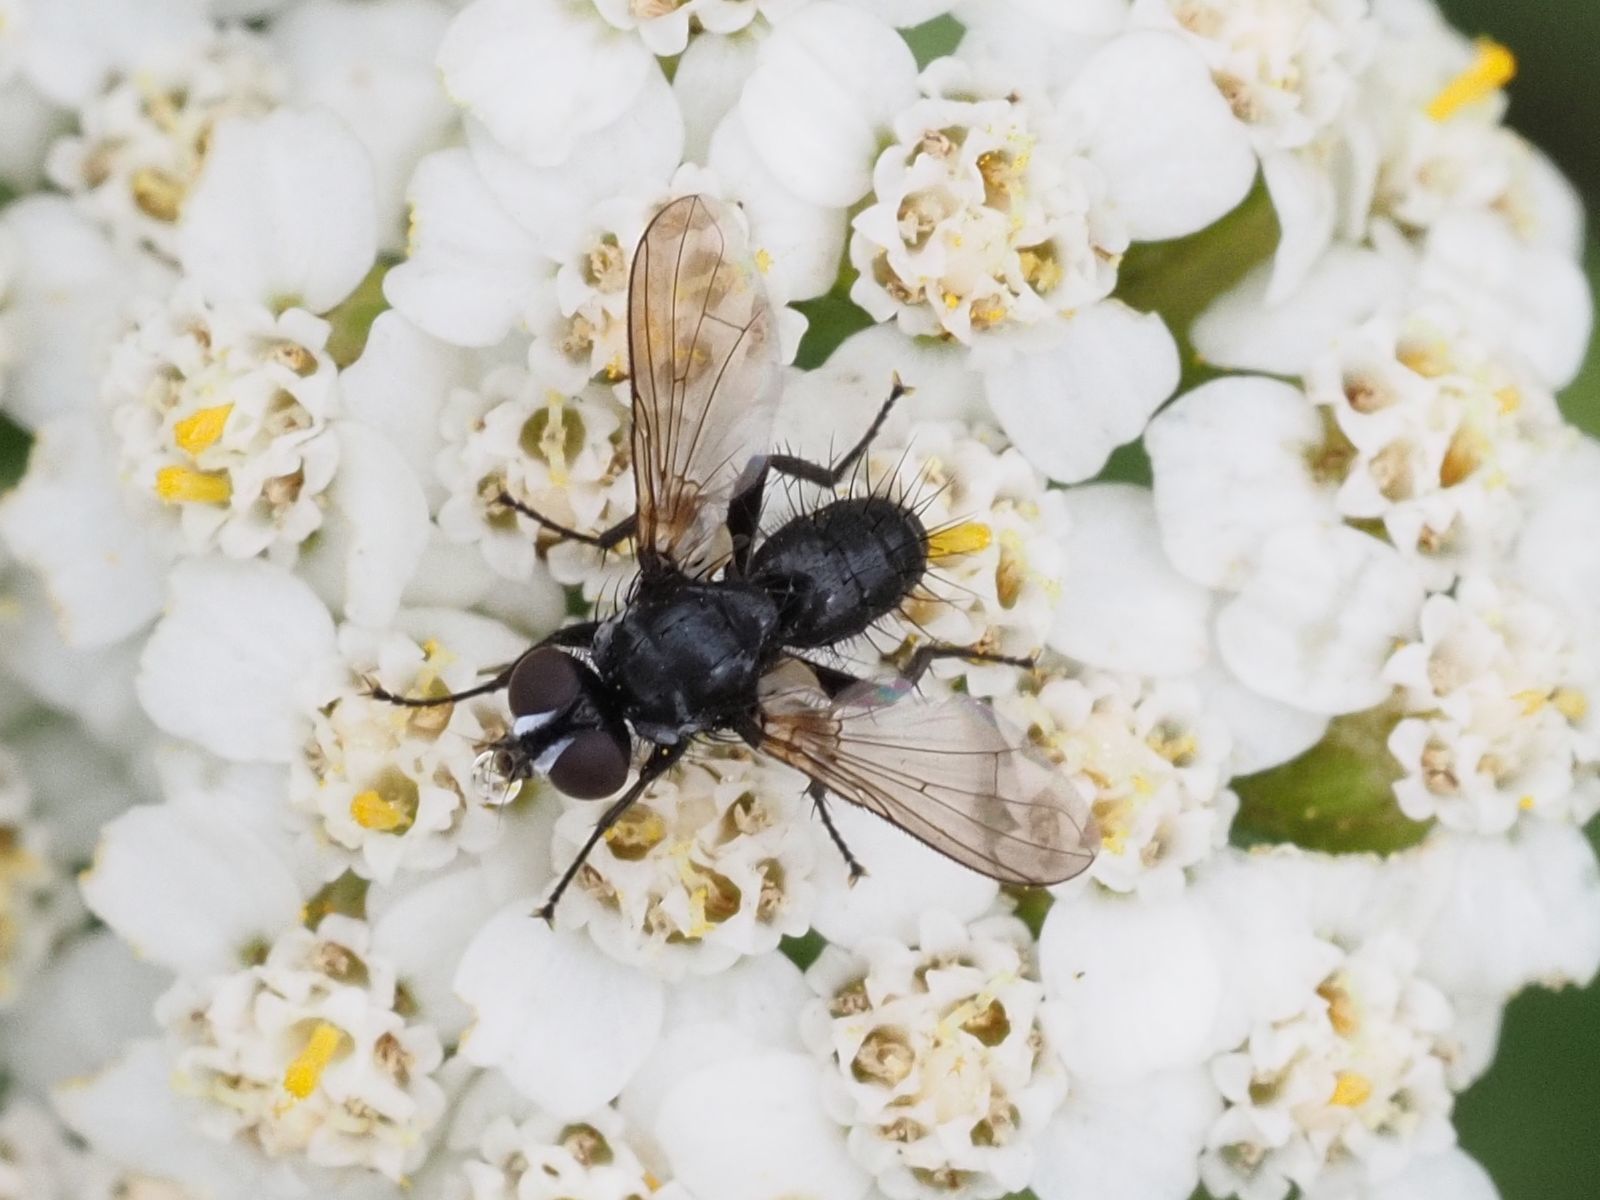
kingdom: Animalia
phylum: Arthropoda
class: Insecta
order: Diptera
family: Tachinidae
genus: Phania
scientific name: Phania funesta
